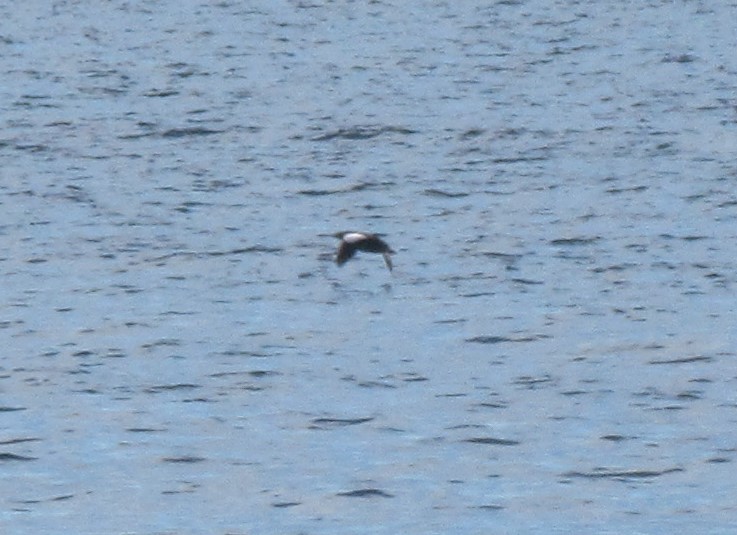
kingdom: Animalia
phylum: Chordata
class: Aves
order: Charadriiformes
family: Alcidae
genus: Cepphus
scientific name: Cepphus grylle
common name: Black guillemot
